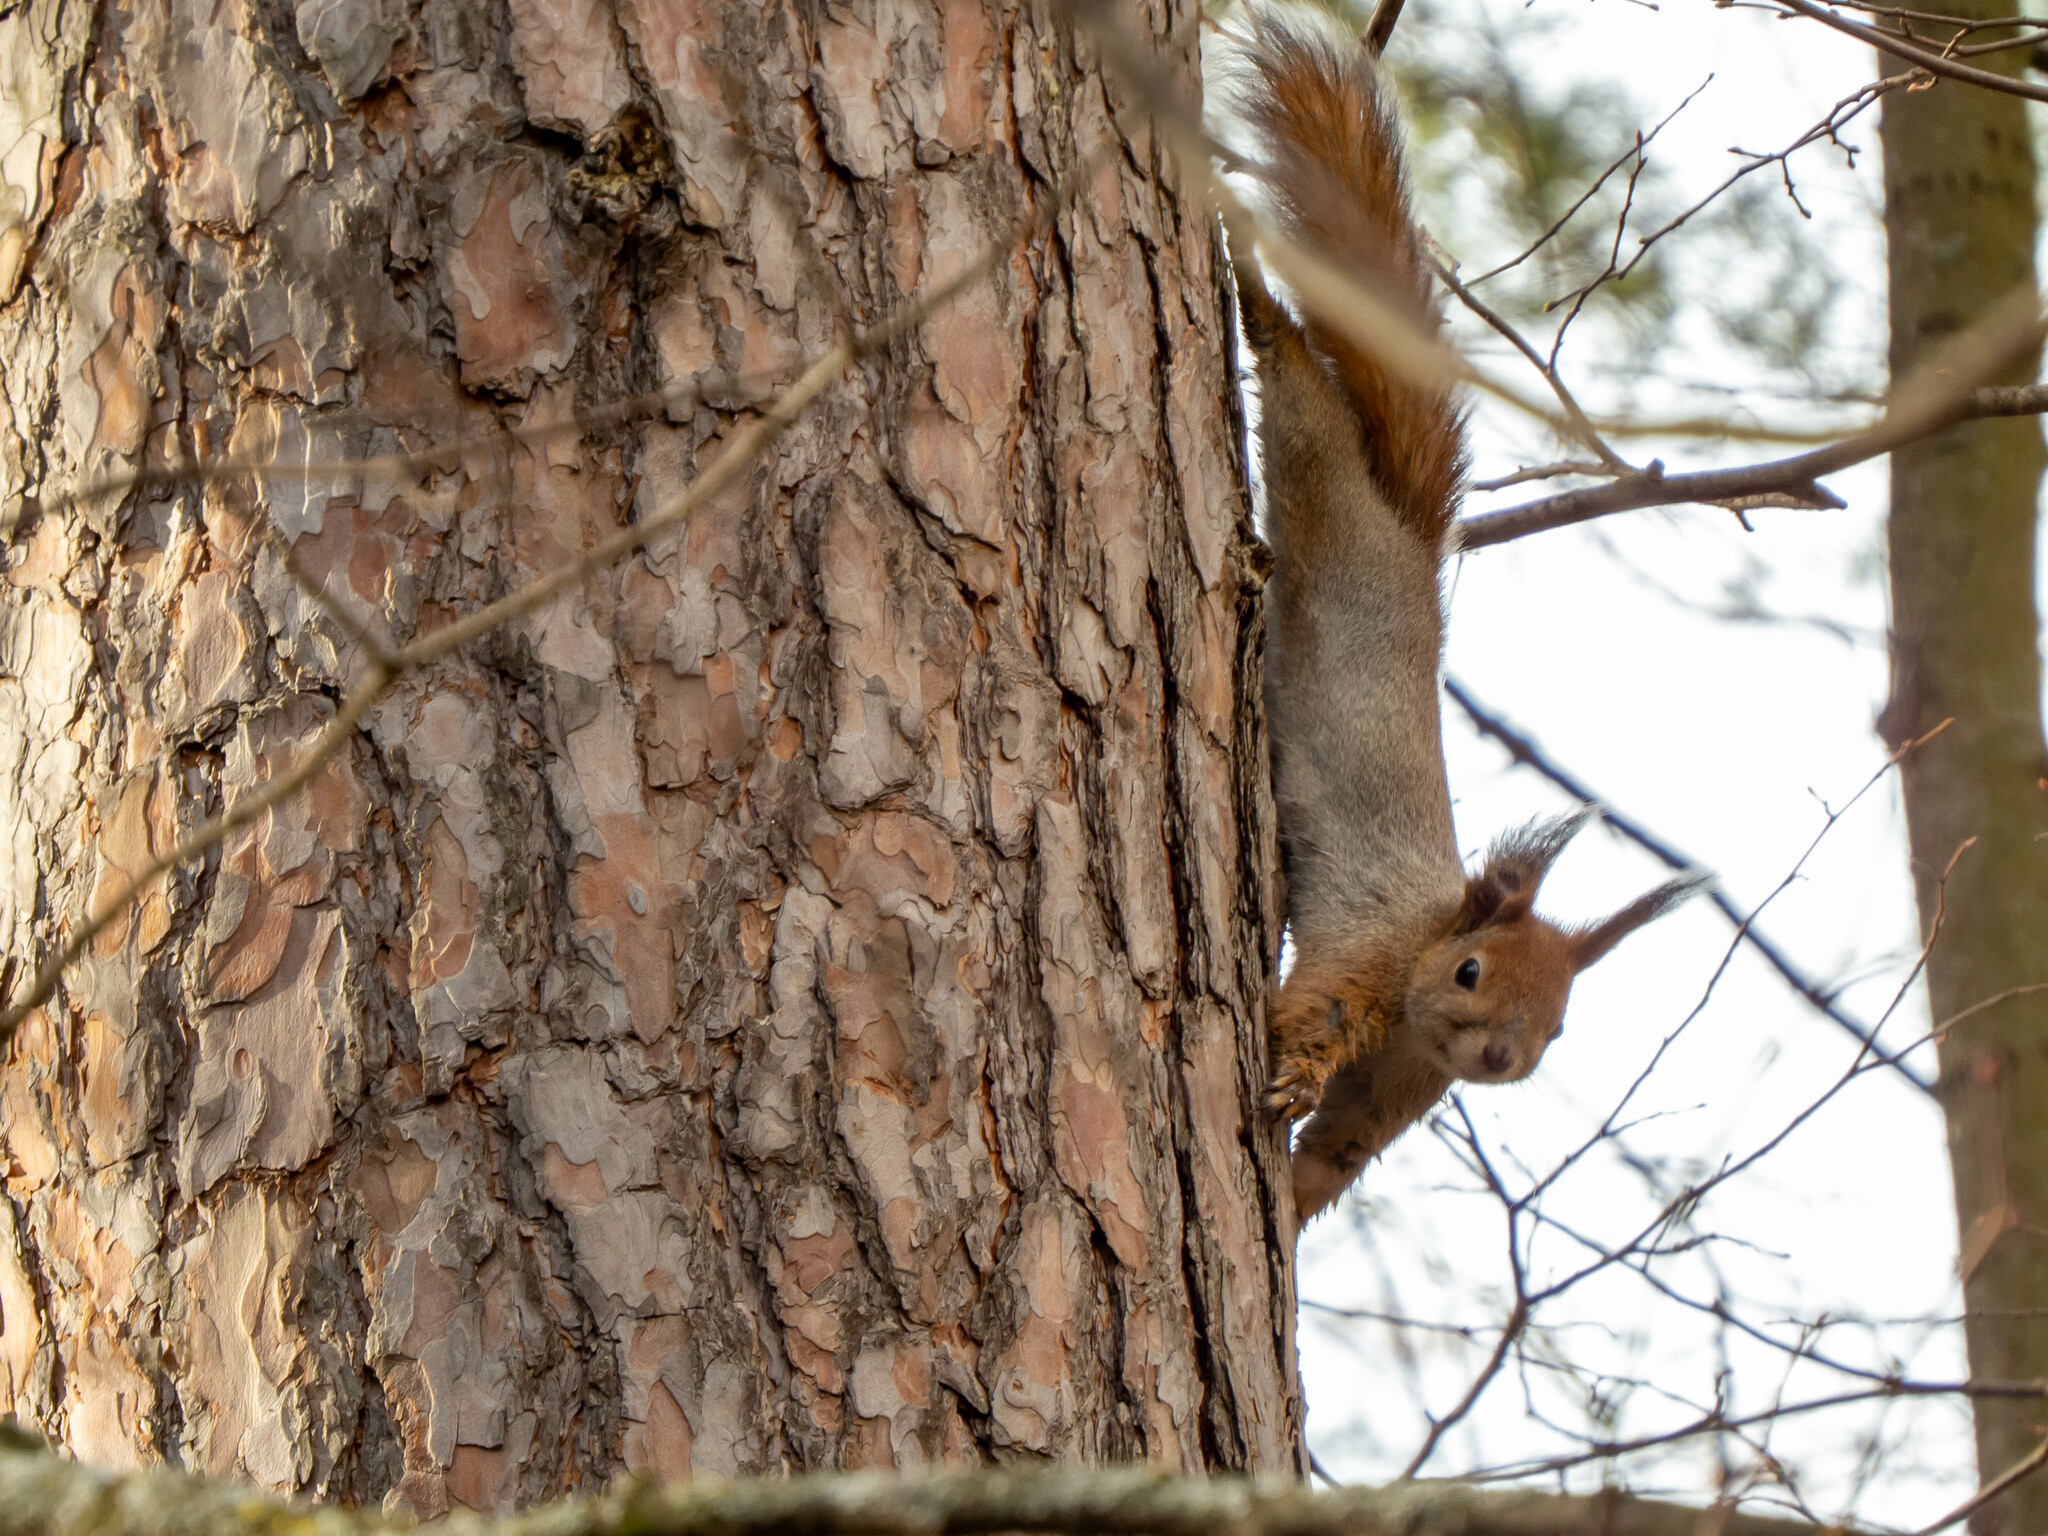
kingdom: Animalia
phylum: Chordata
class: Mammalia
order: Rodentia
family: Sciuridae
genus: Sciurus
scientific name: Sciurus vulgaris
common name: Eurasian red squirrel
